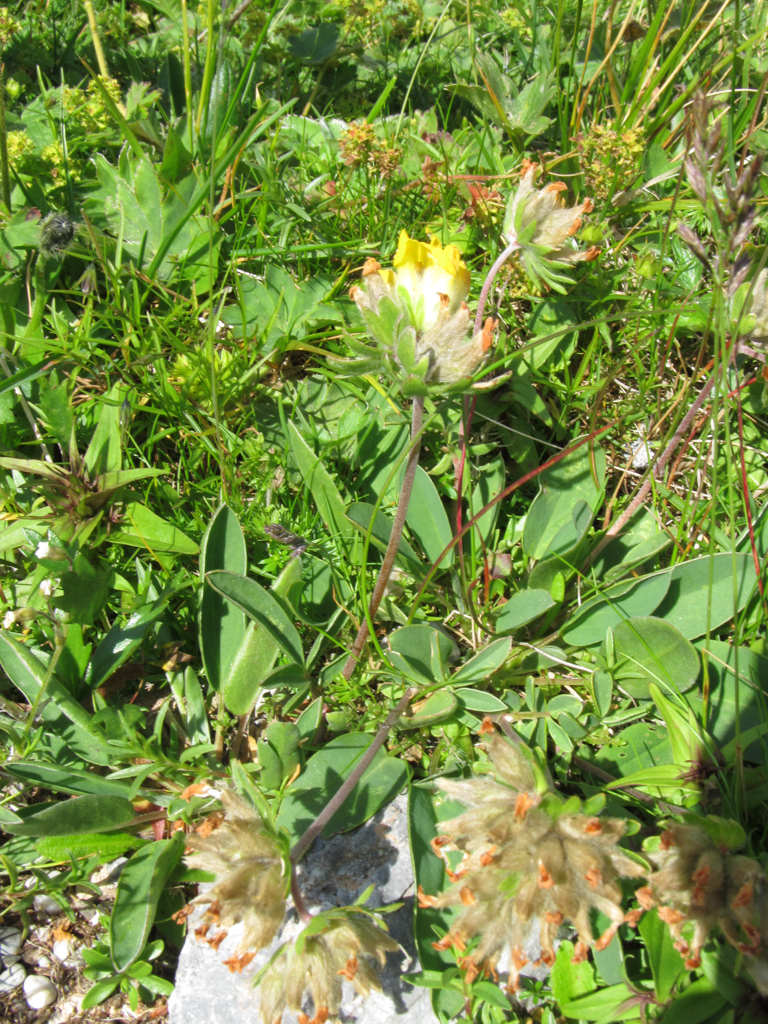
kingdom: Plantae
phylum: Tracheophyta
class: Magnoliopsida
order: Fabales
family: Fabaceae
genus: Anthyllis
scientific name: Anthyllis vulneraria
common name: Kidney vetch
